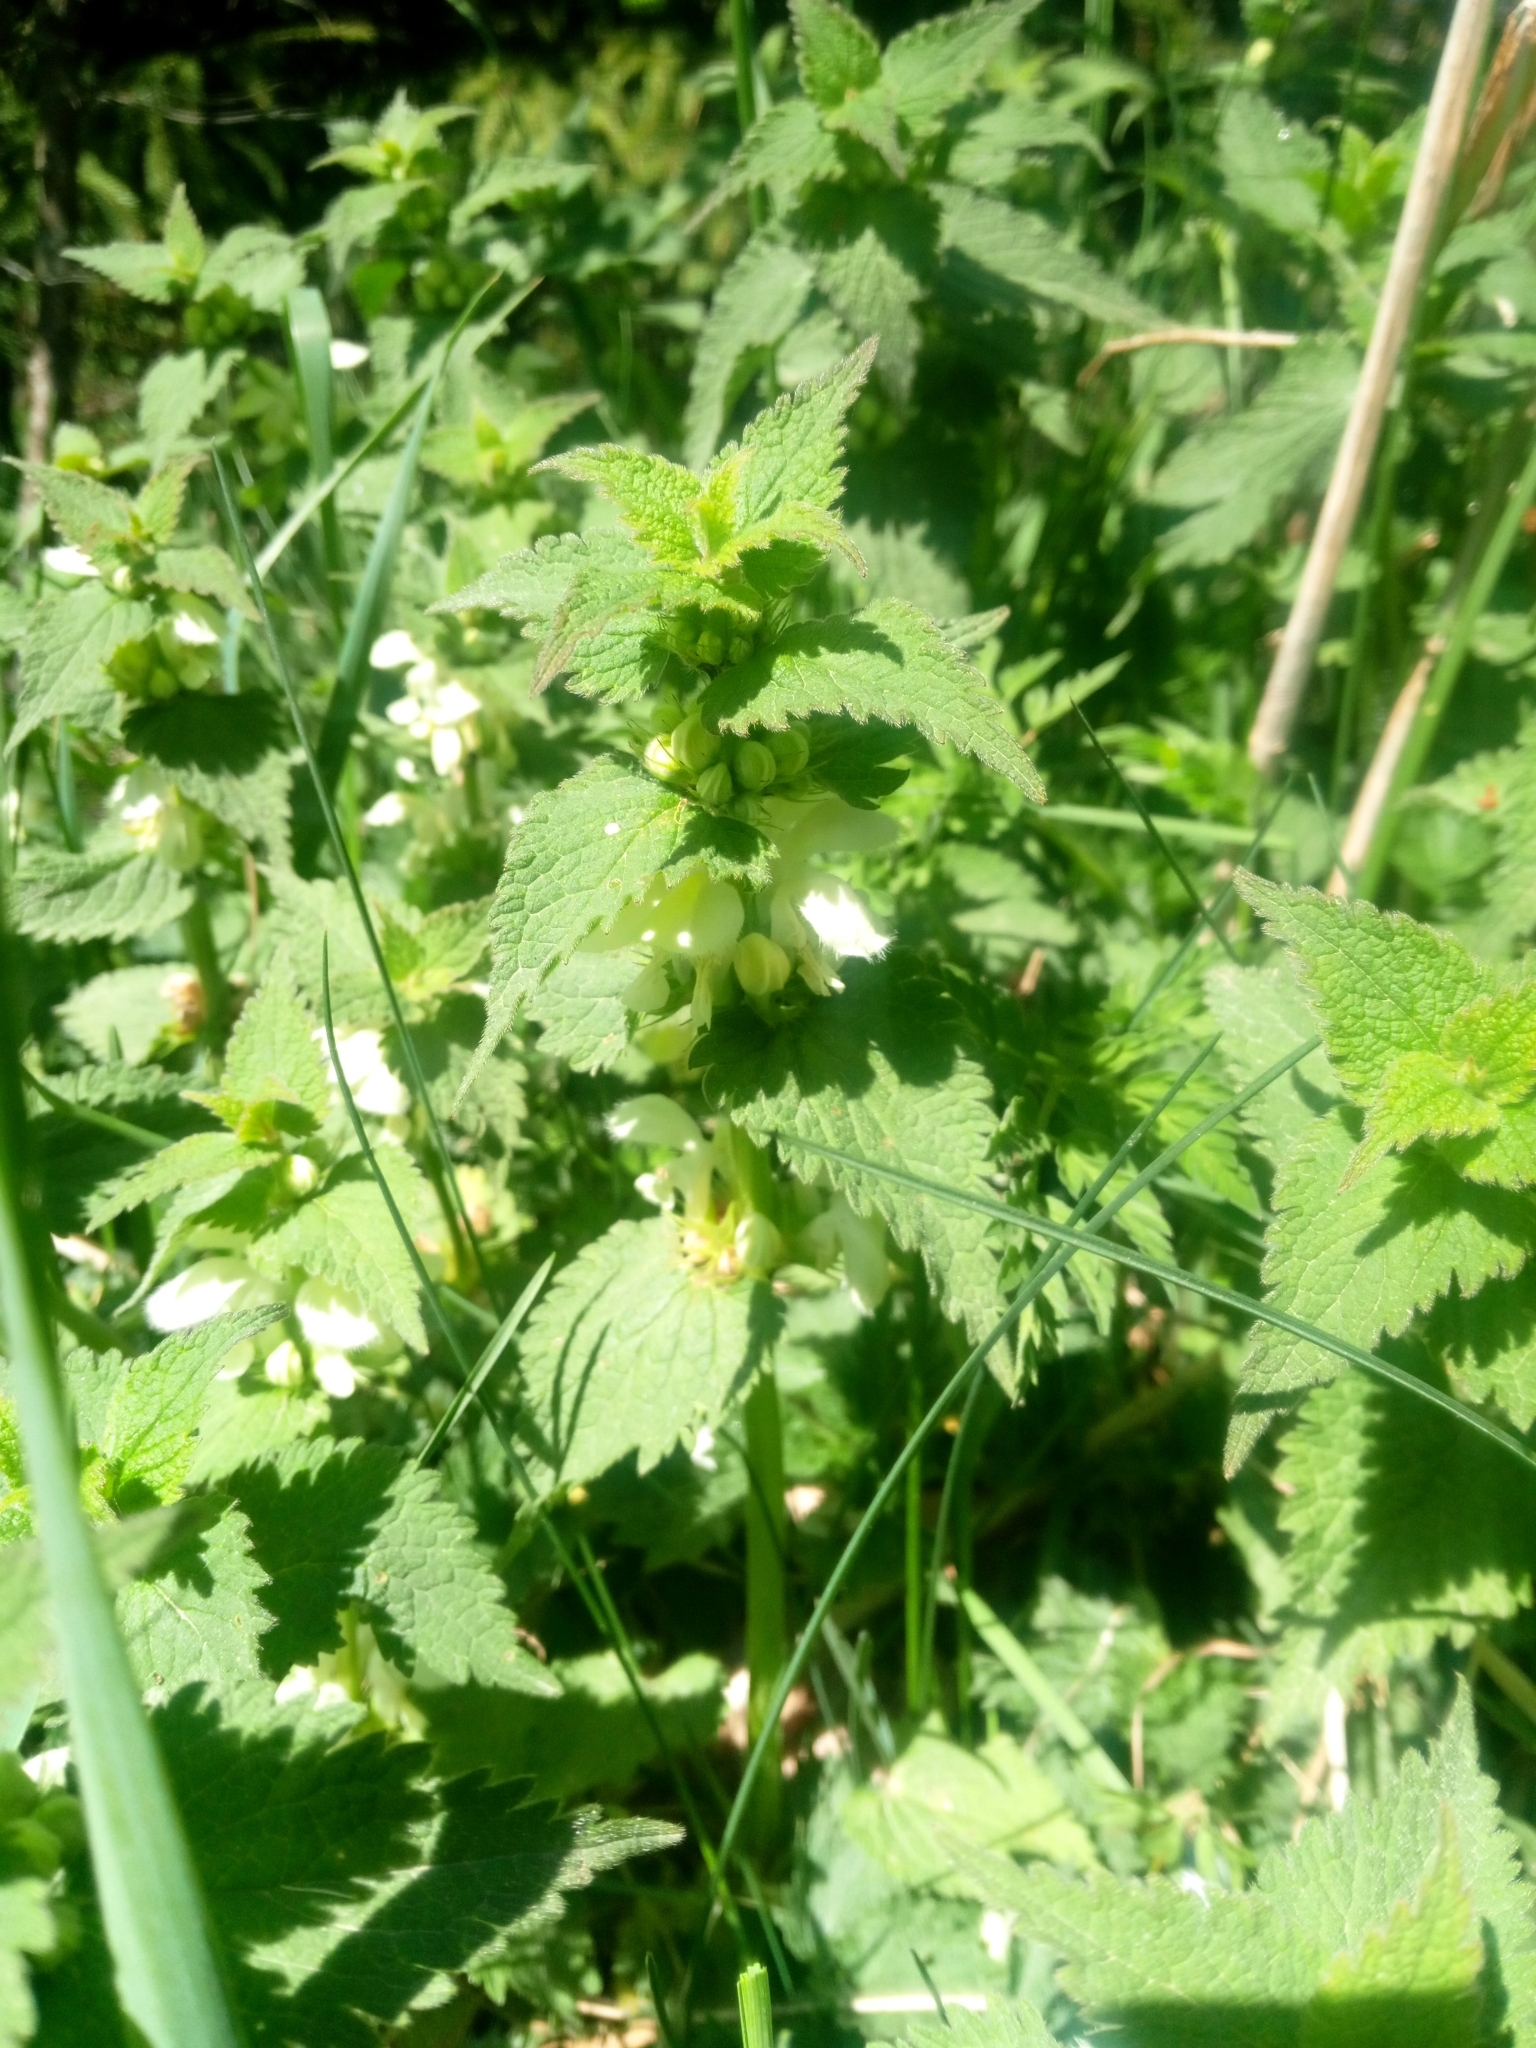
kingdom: Plantae
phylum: Tracheophyta
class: Magnoliopsida
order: Lamiales
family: Lamiaceae
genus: Lamium
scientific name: Lamium album
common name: White dead-nettle
